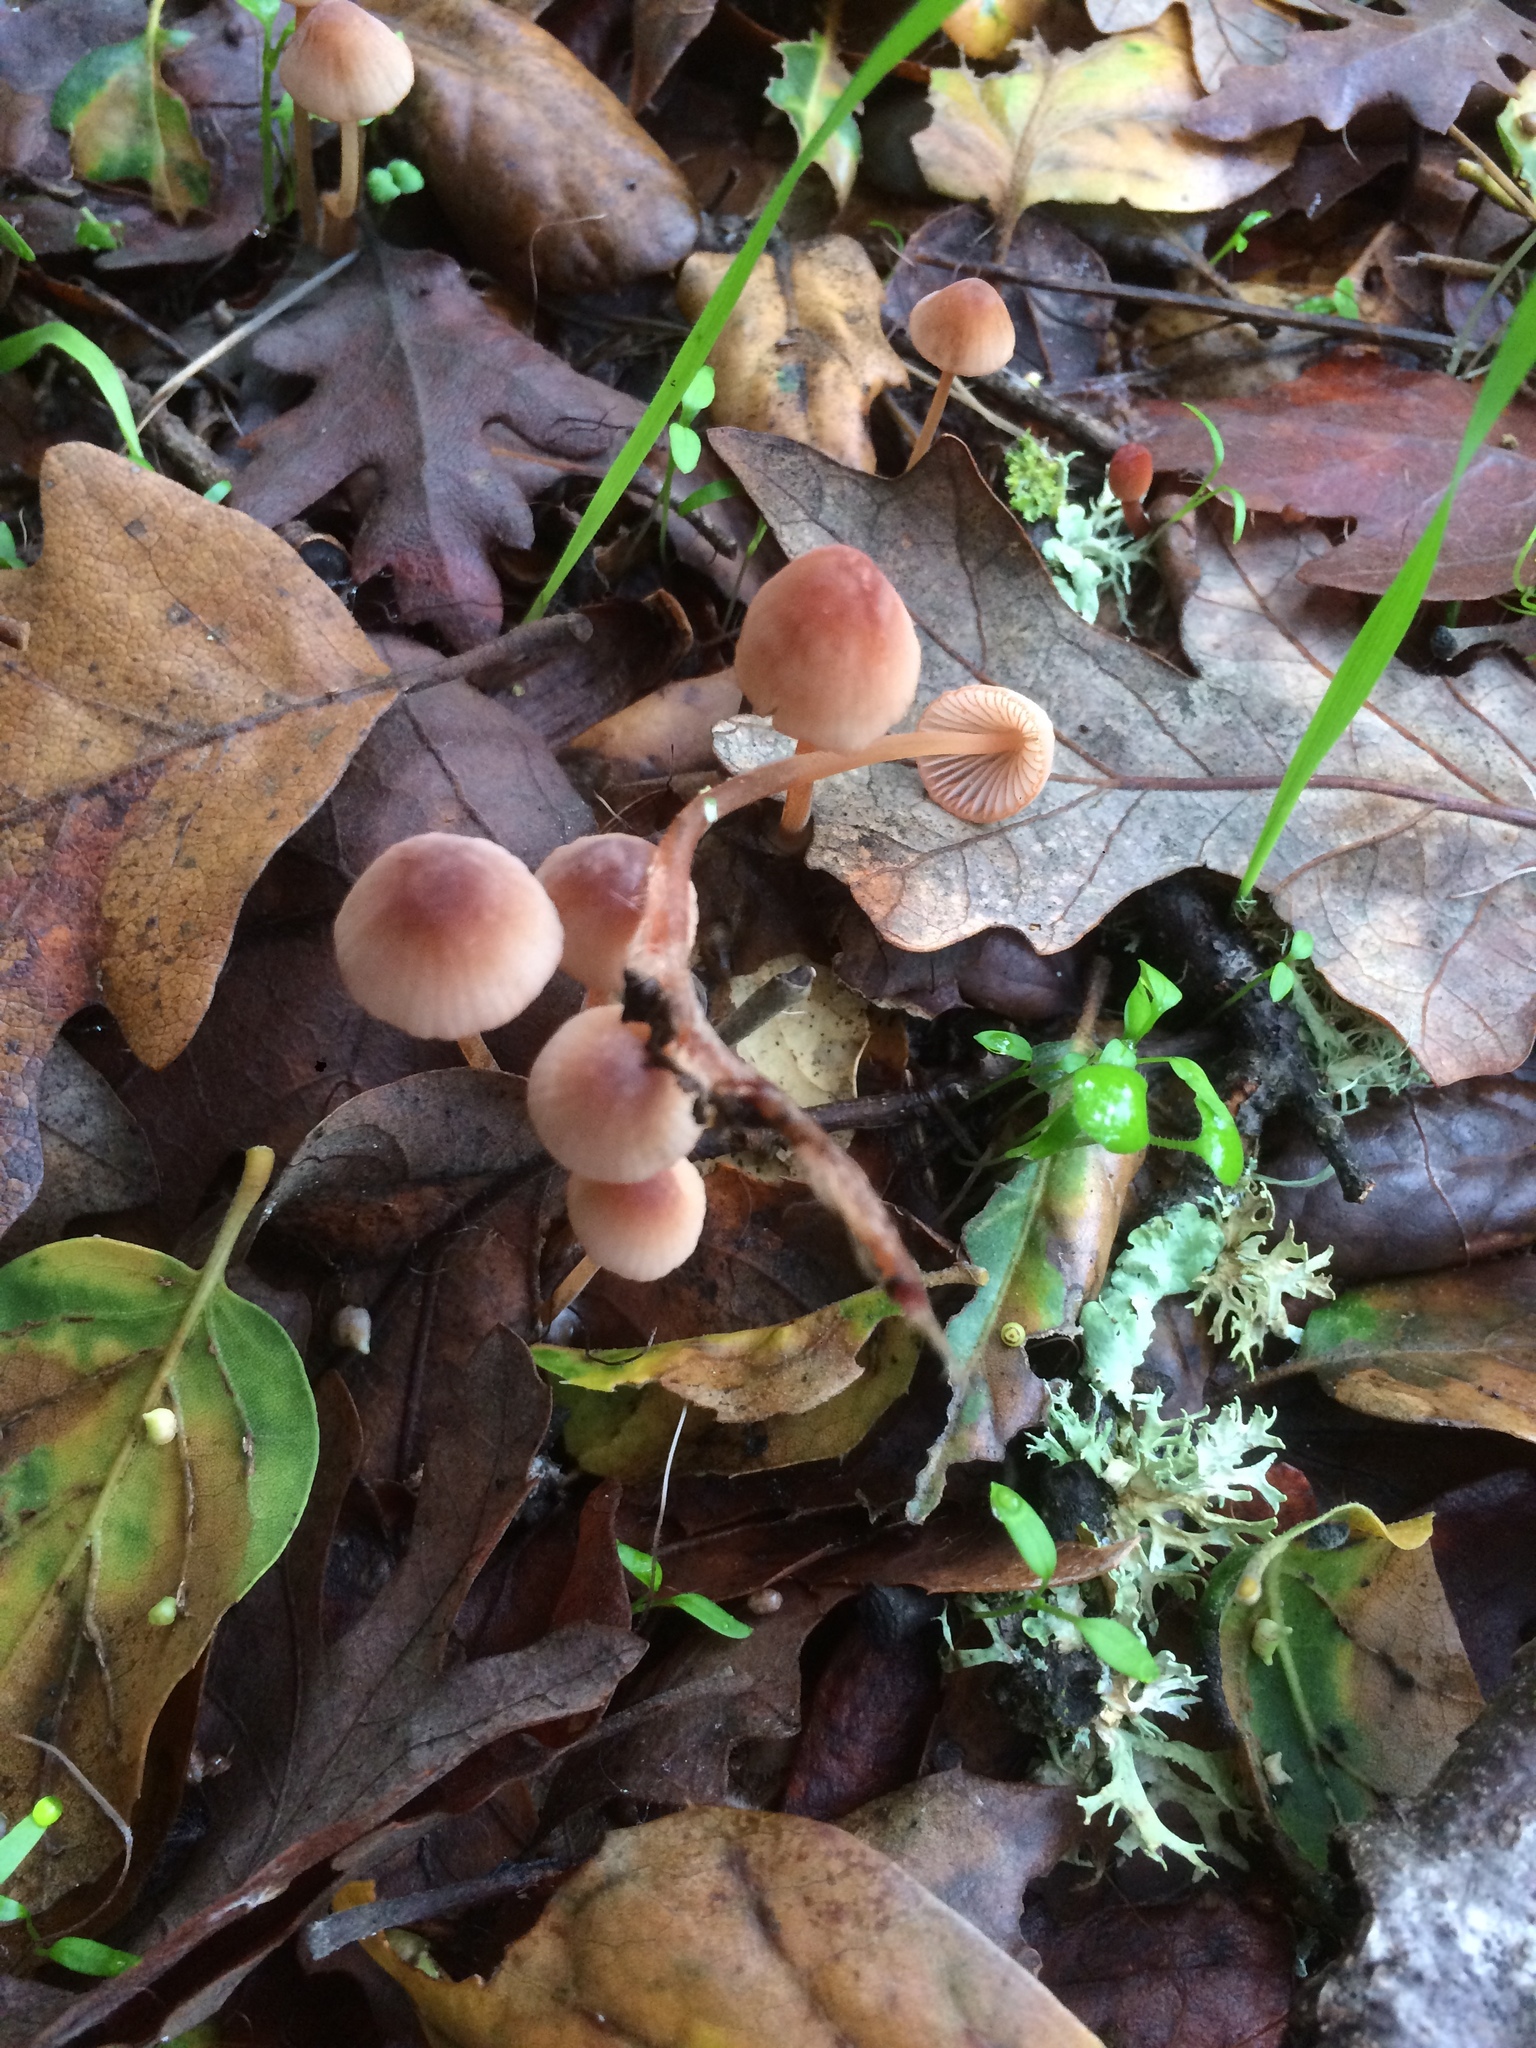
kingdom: Fungi
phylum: Basidiomycota
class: Agaricomycetes
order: Agaricales
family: Mycenaceae
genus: Mycena
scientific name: Mycena
